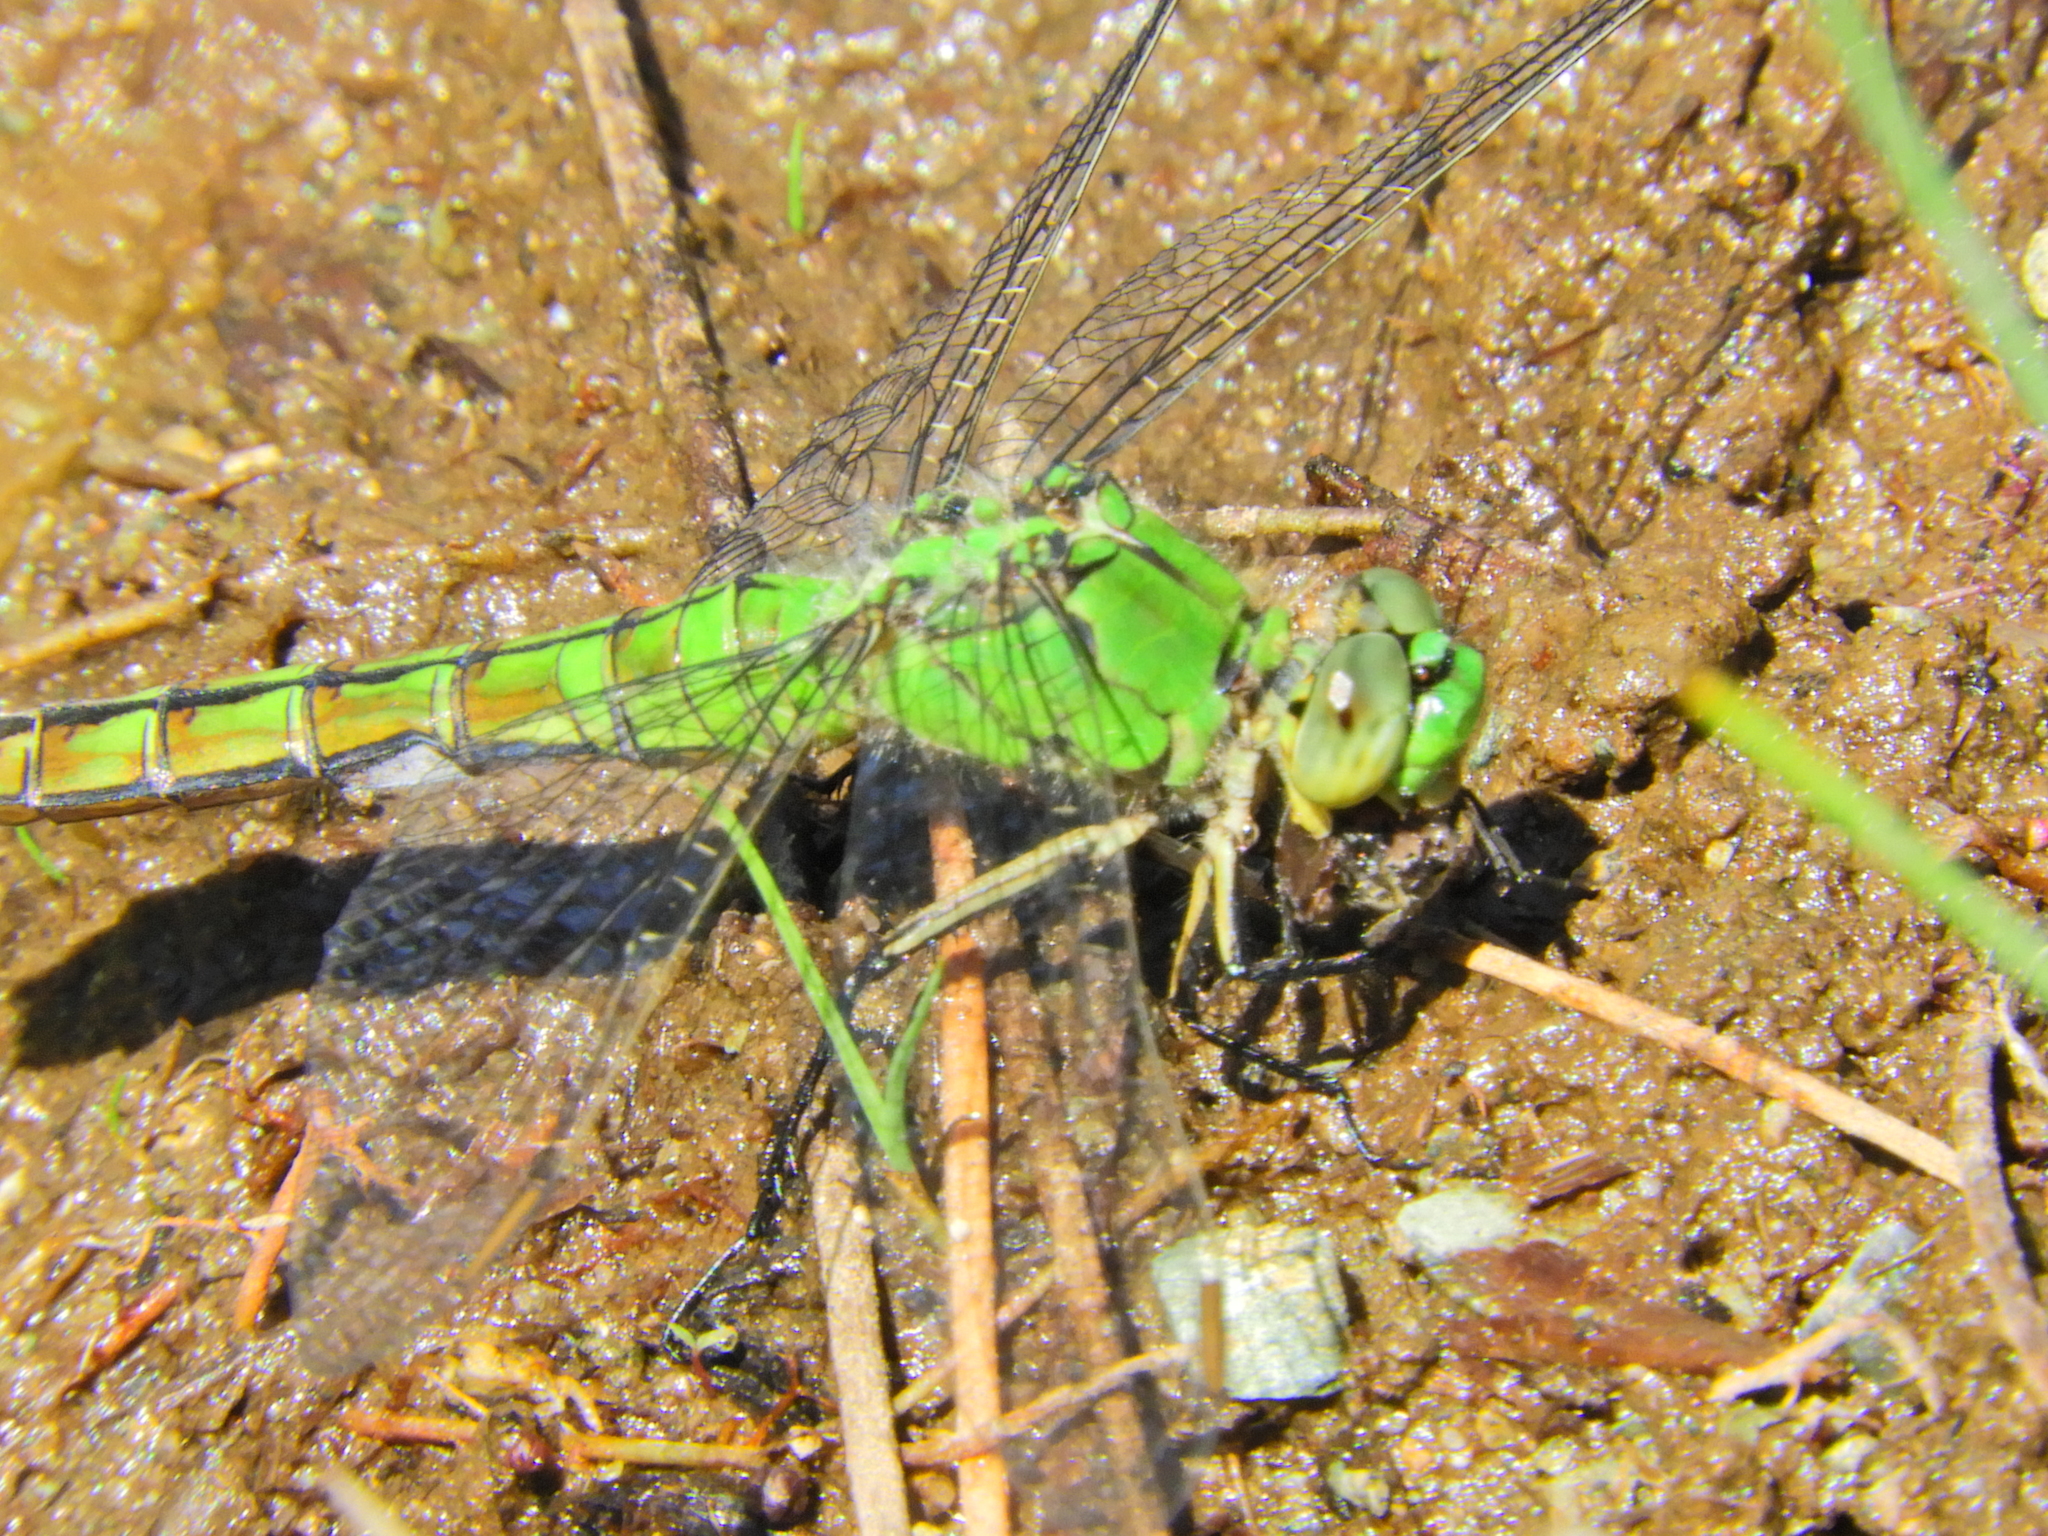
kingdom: Animalia
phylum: Arthropoda
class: Insecta
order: Odonata
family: Libellulidae
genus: Erythemis
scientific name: Erythemis collocata
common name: Western pondhawk
